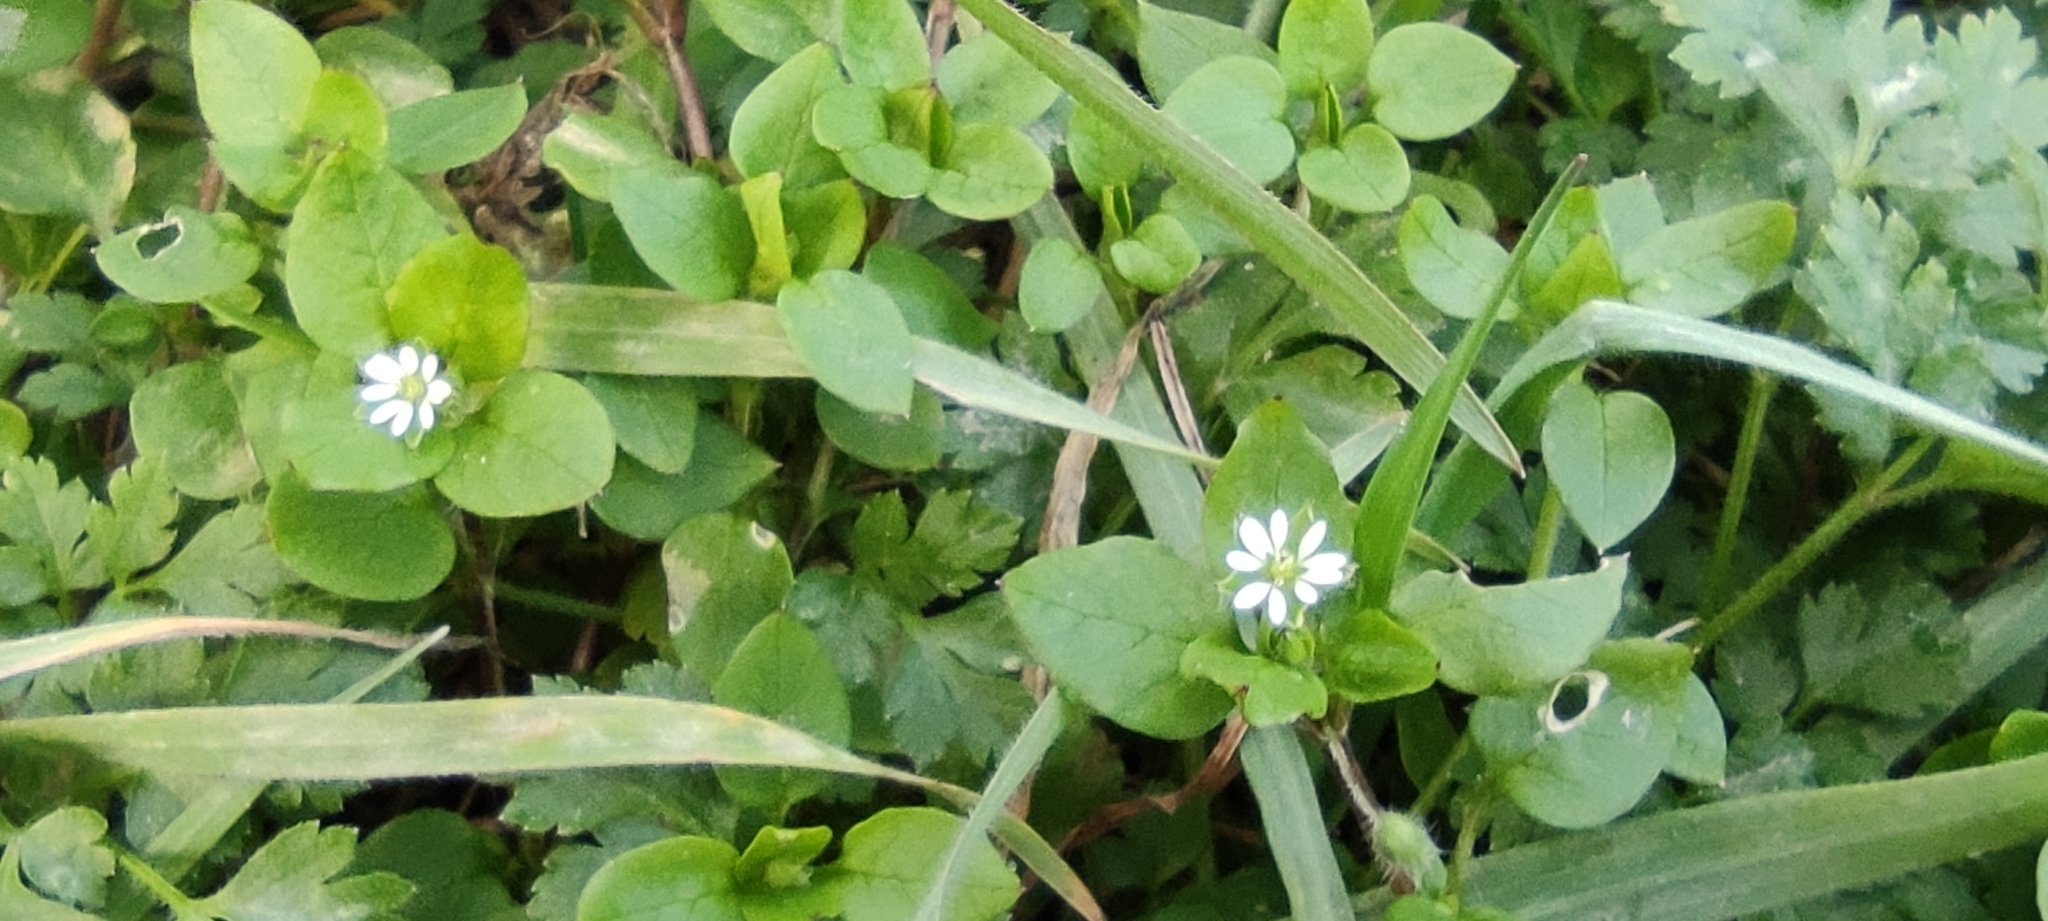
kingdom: Plantae
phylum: Tracheophyta
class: Magnoliopsida
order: Caryophyllales
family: Caryophyllaceae
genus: Stellaria
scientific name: Stellaria media
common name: Common chickweed
